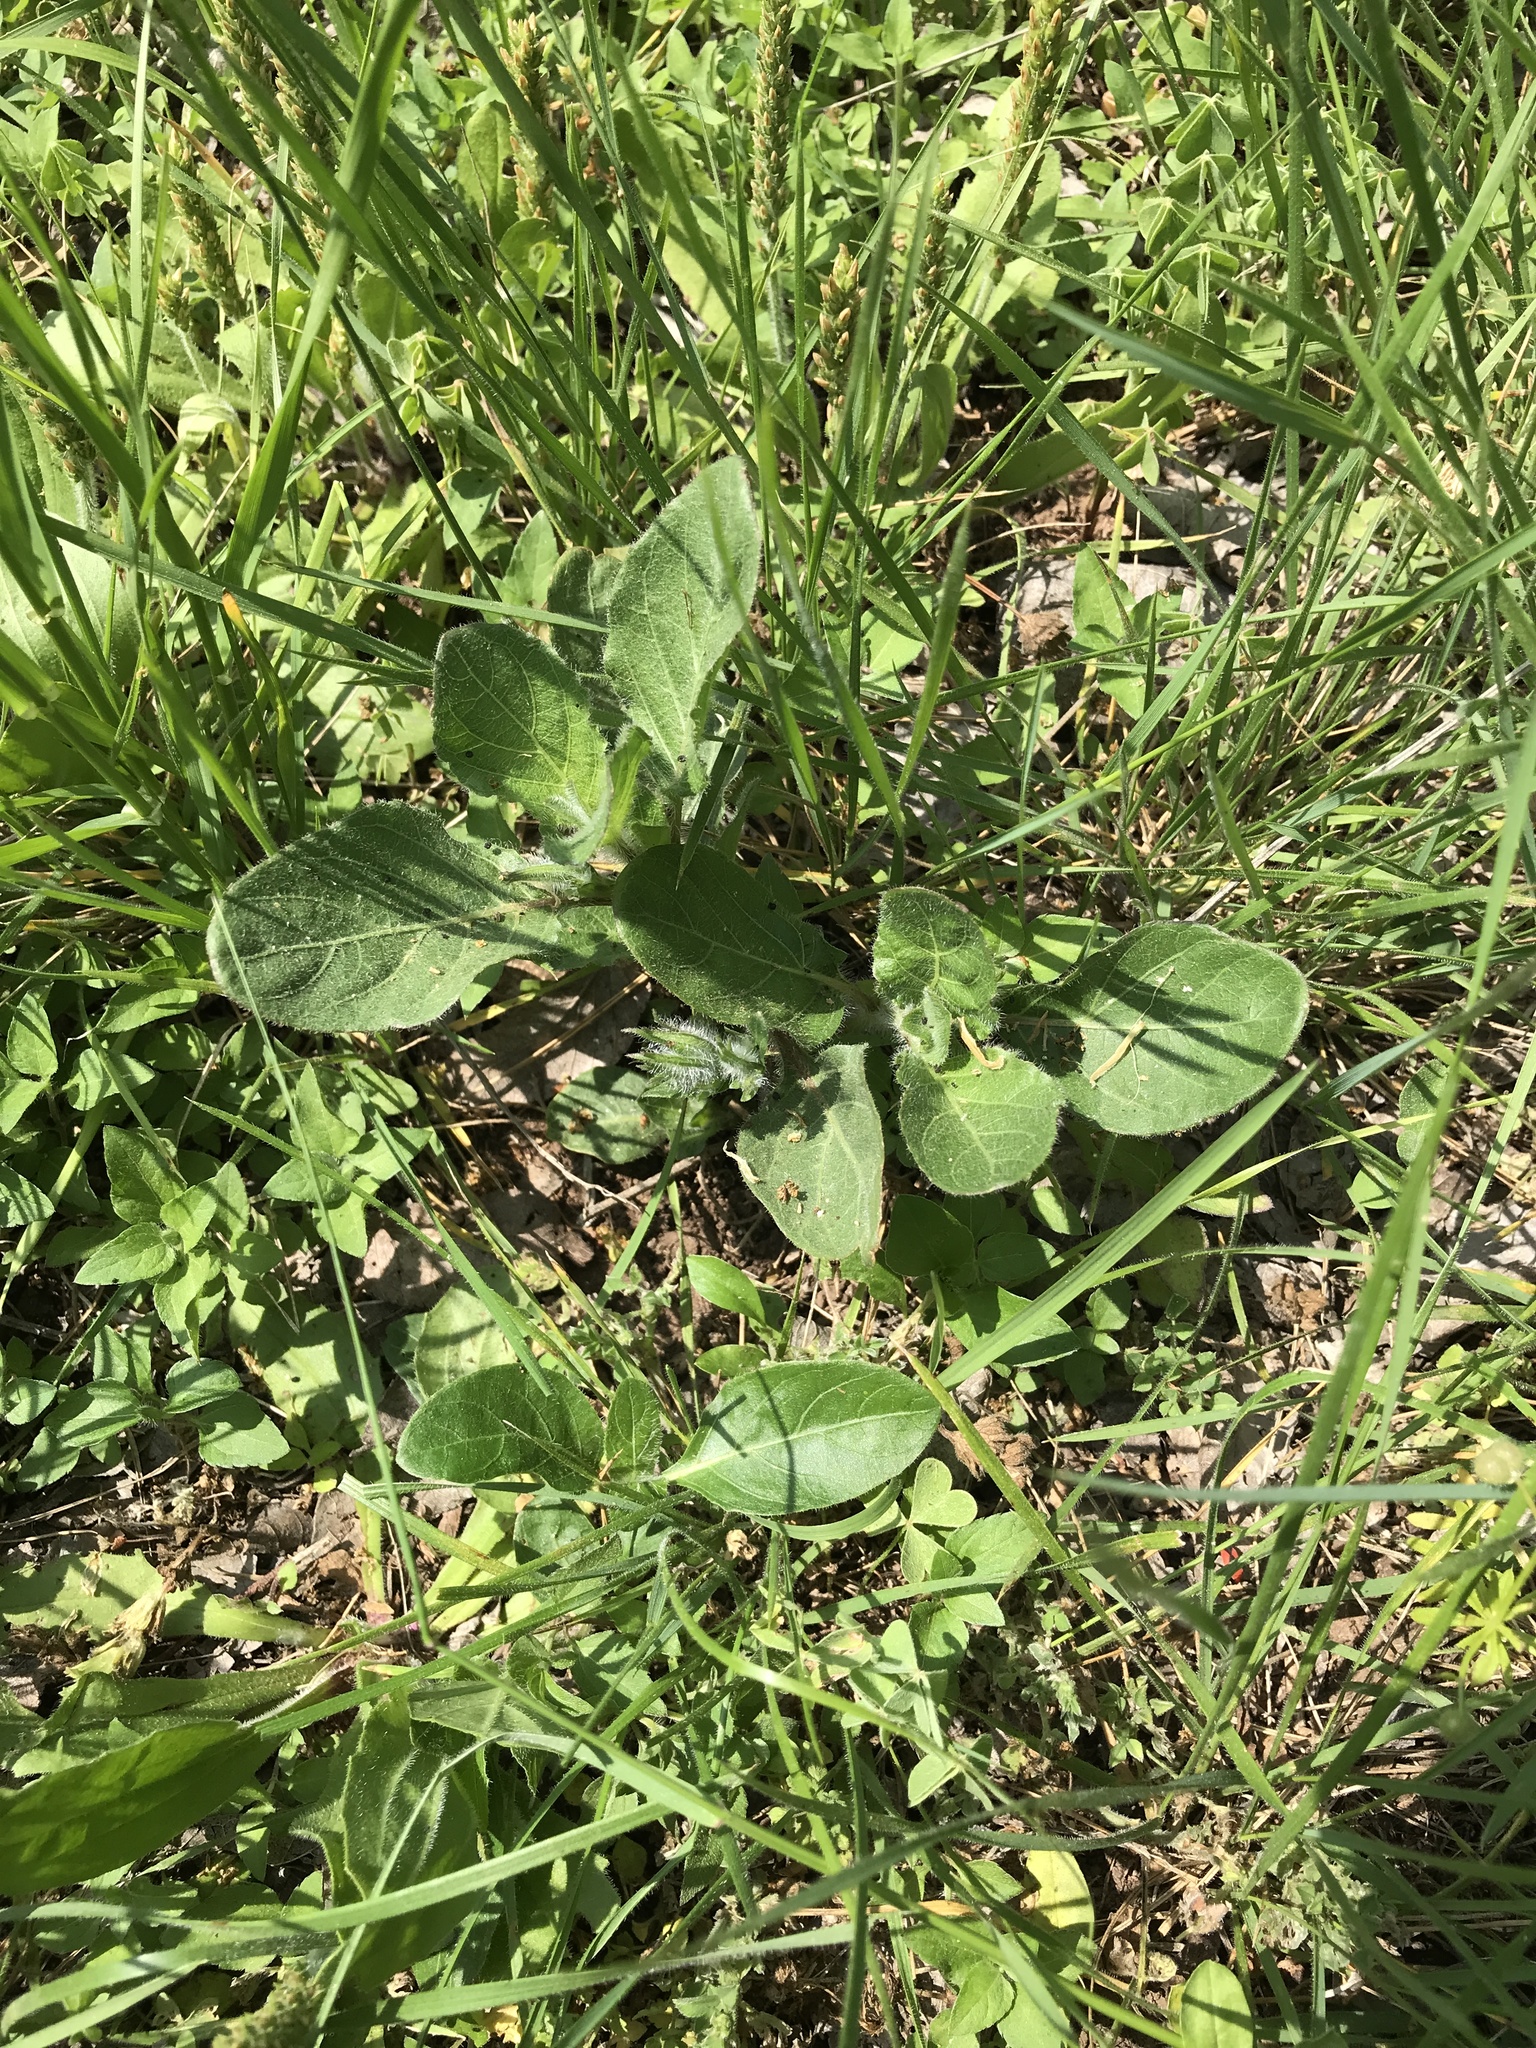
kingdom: Plantae
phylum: Tracheophyta
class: Magnoliopsida
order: Lamiales
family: Acanthaceae
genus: Ruellia
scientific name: Ruellia humilis
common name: Fringe-leaf ruellia
